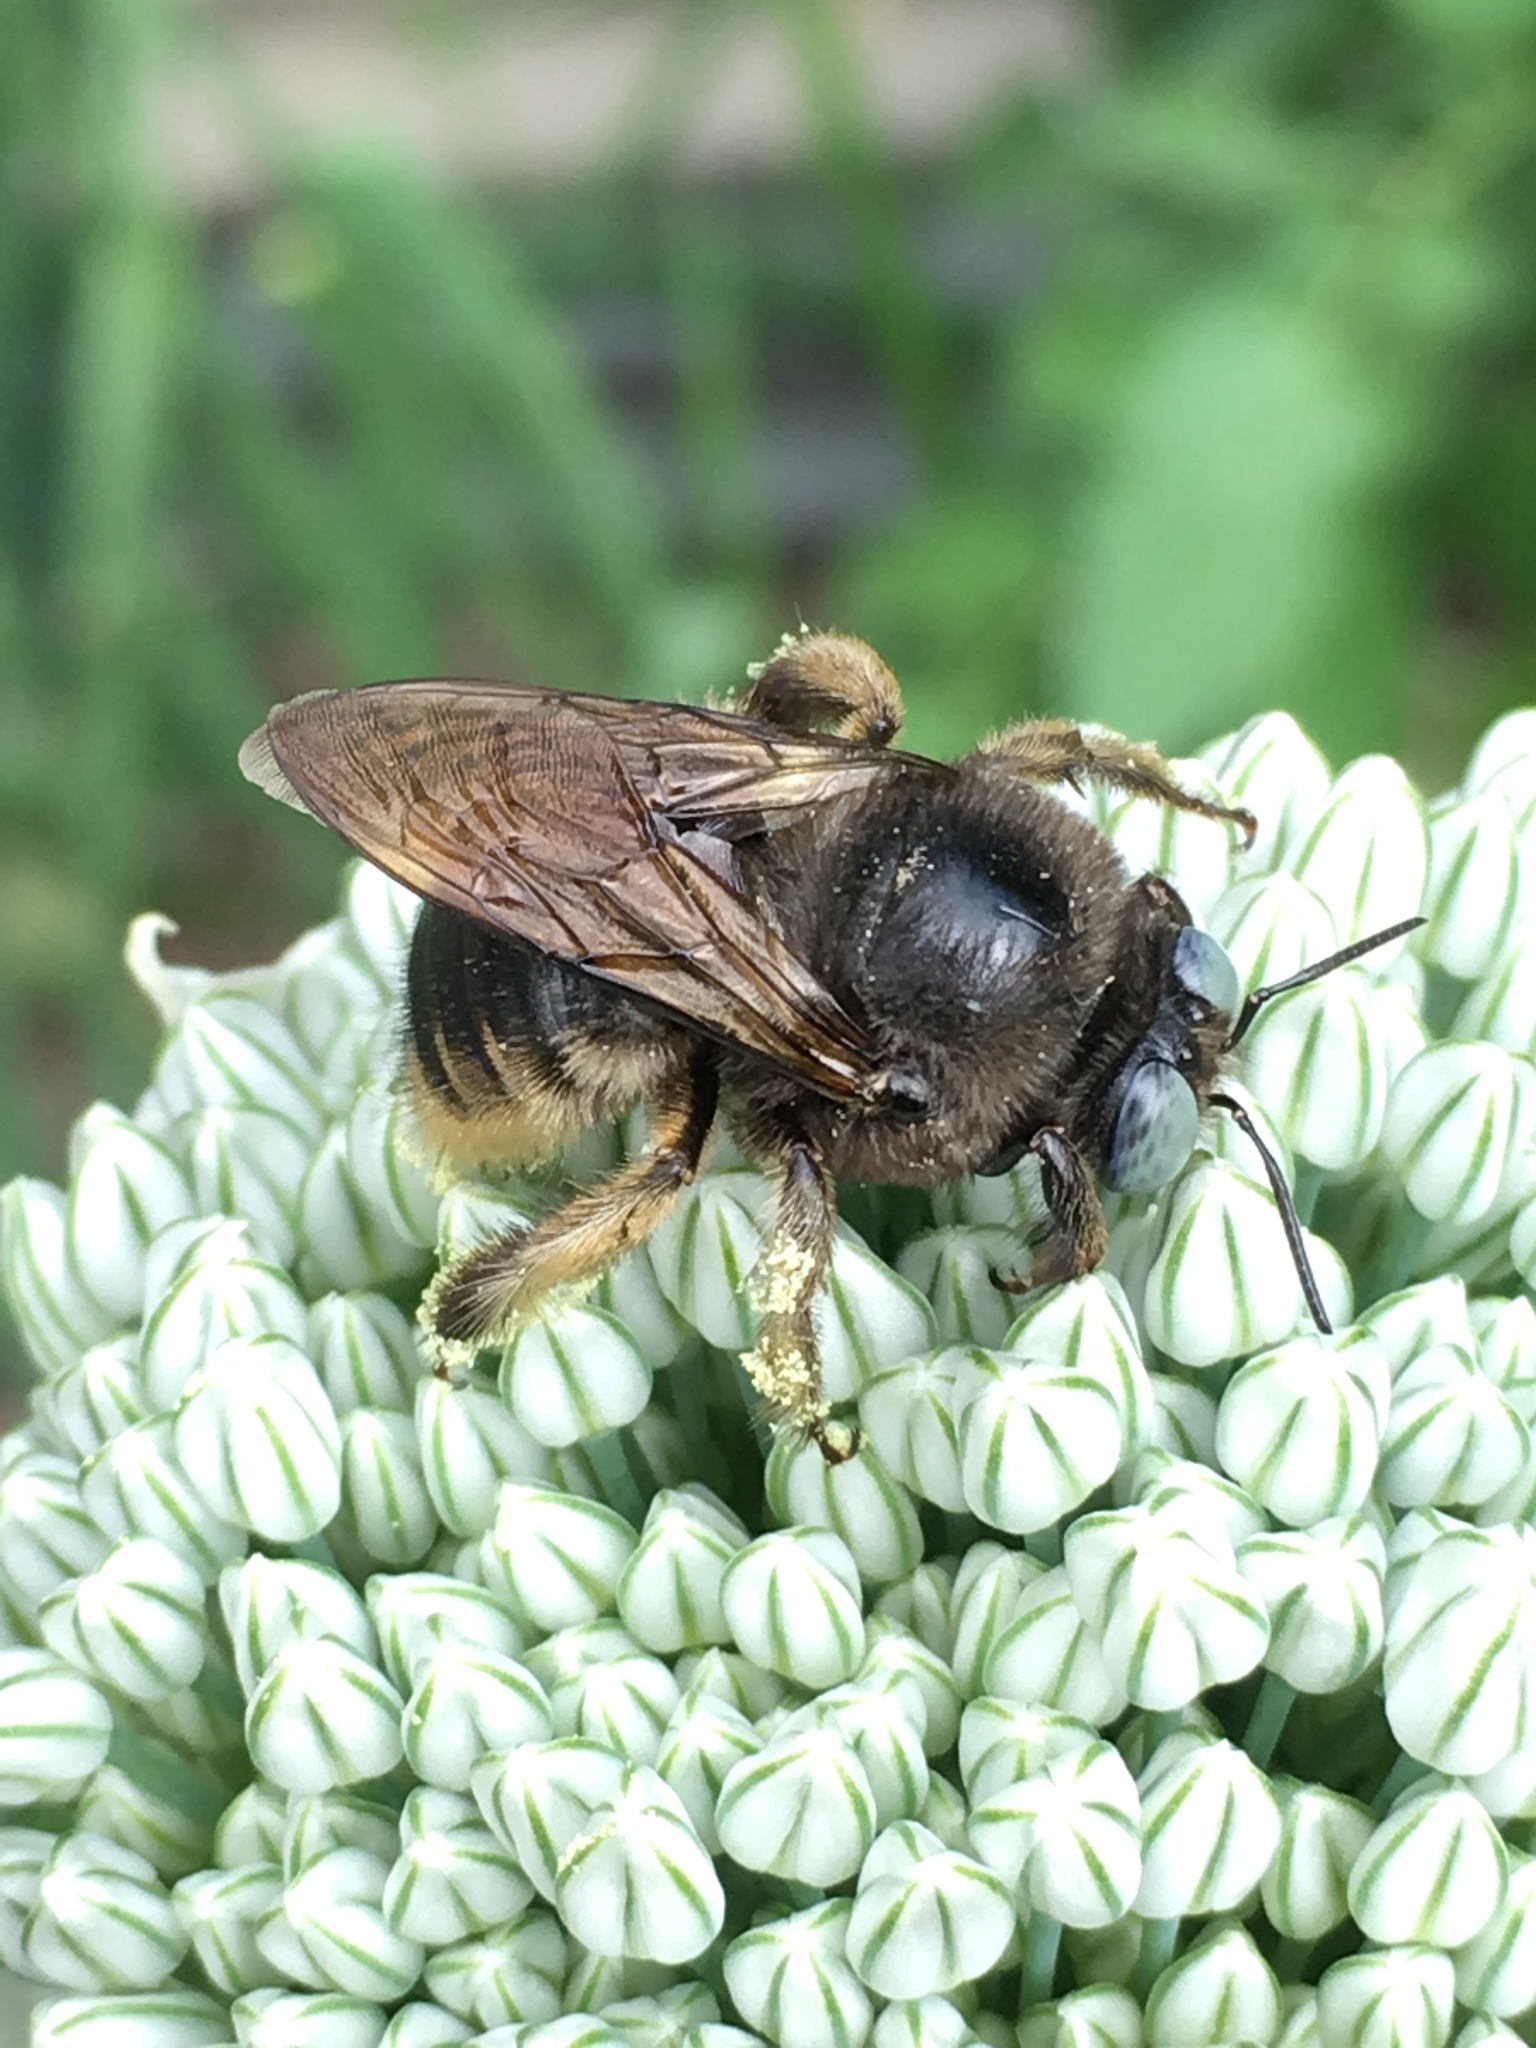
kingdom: Animalia
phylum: Arthropoda
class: Insecta
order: Hymenoptera
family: Apidae
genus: Xylocopa
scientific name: Xylocopa tabaniformis
